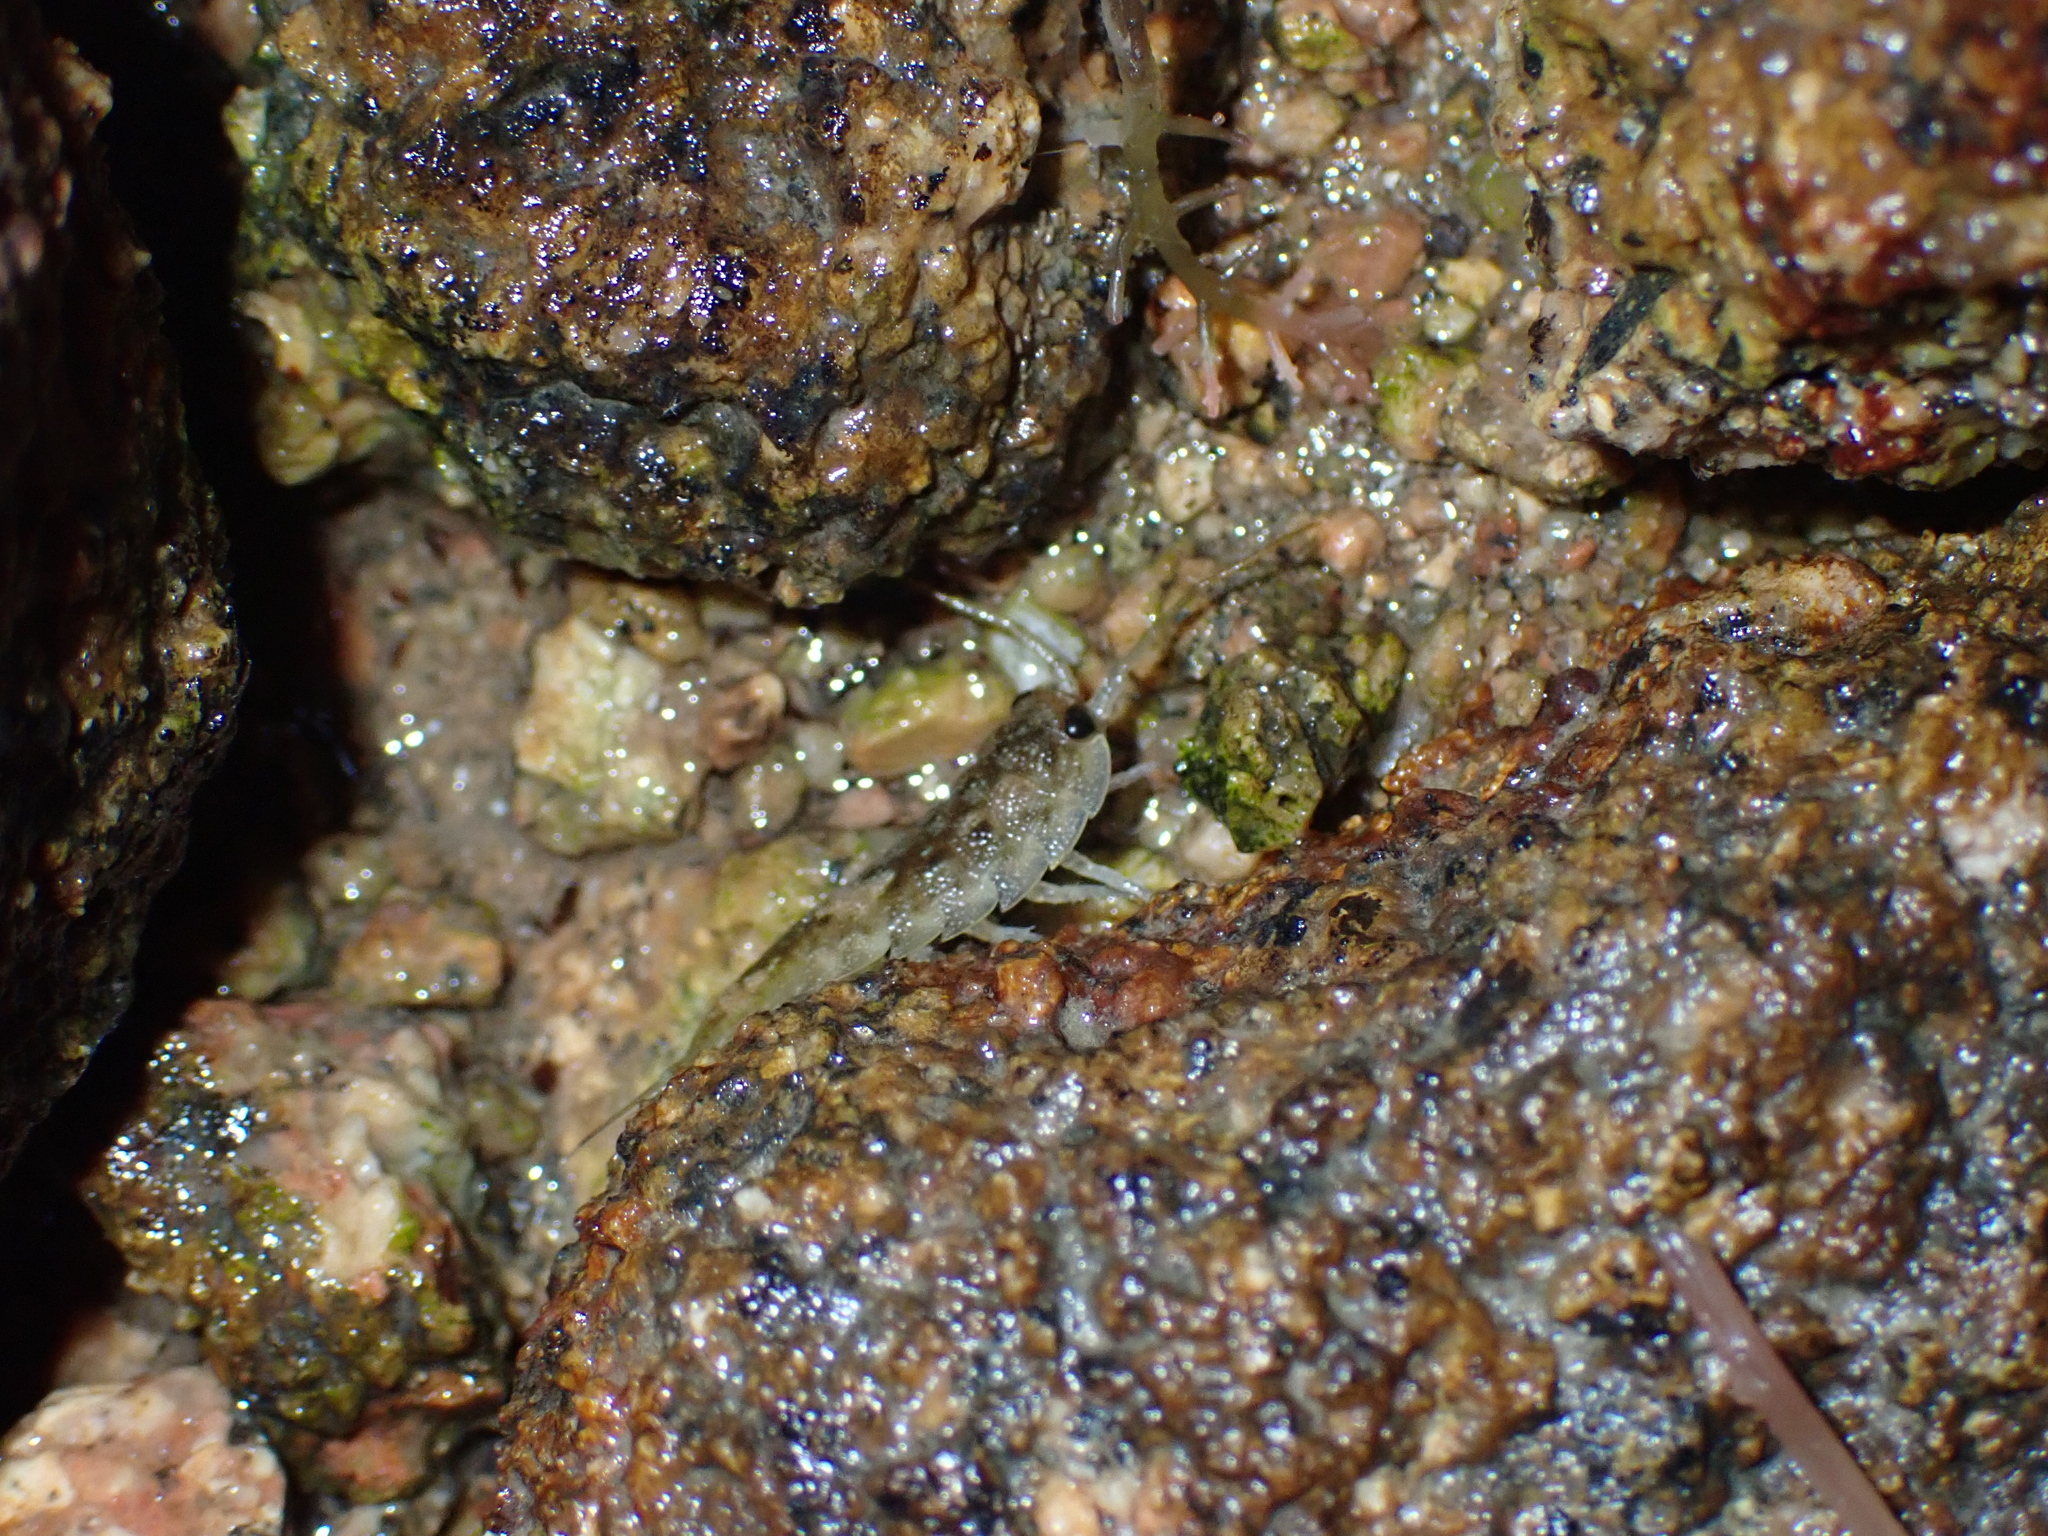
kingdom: Animalia
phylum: Arthropoda
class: Malacostraca
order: Isopoda
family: Ligiidae
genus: Ligia
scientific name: Ligia oceanica
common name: Sea slater
